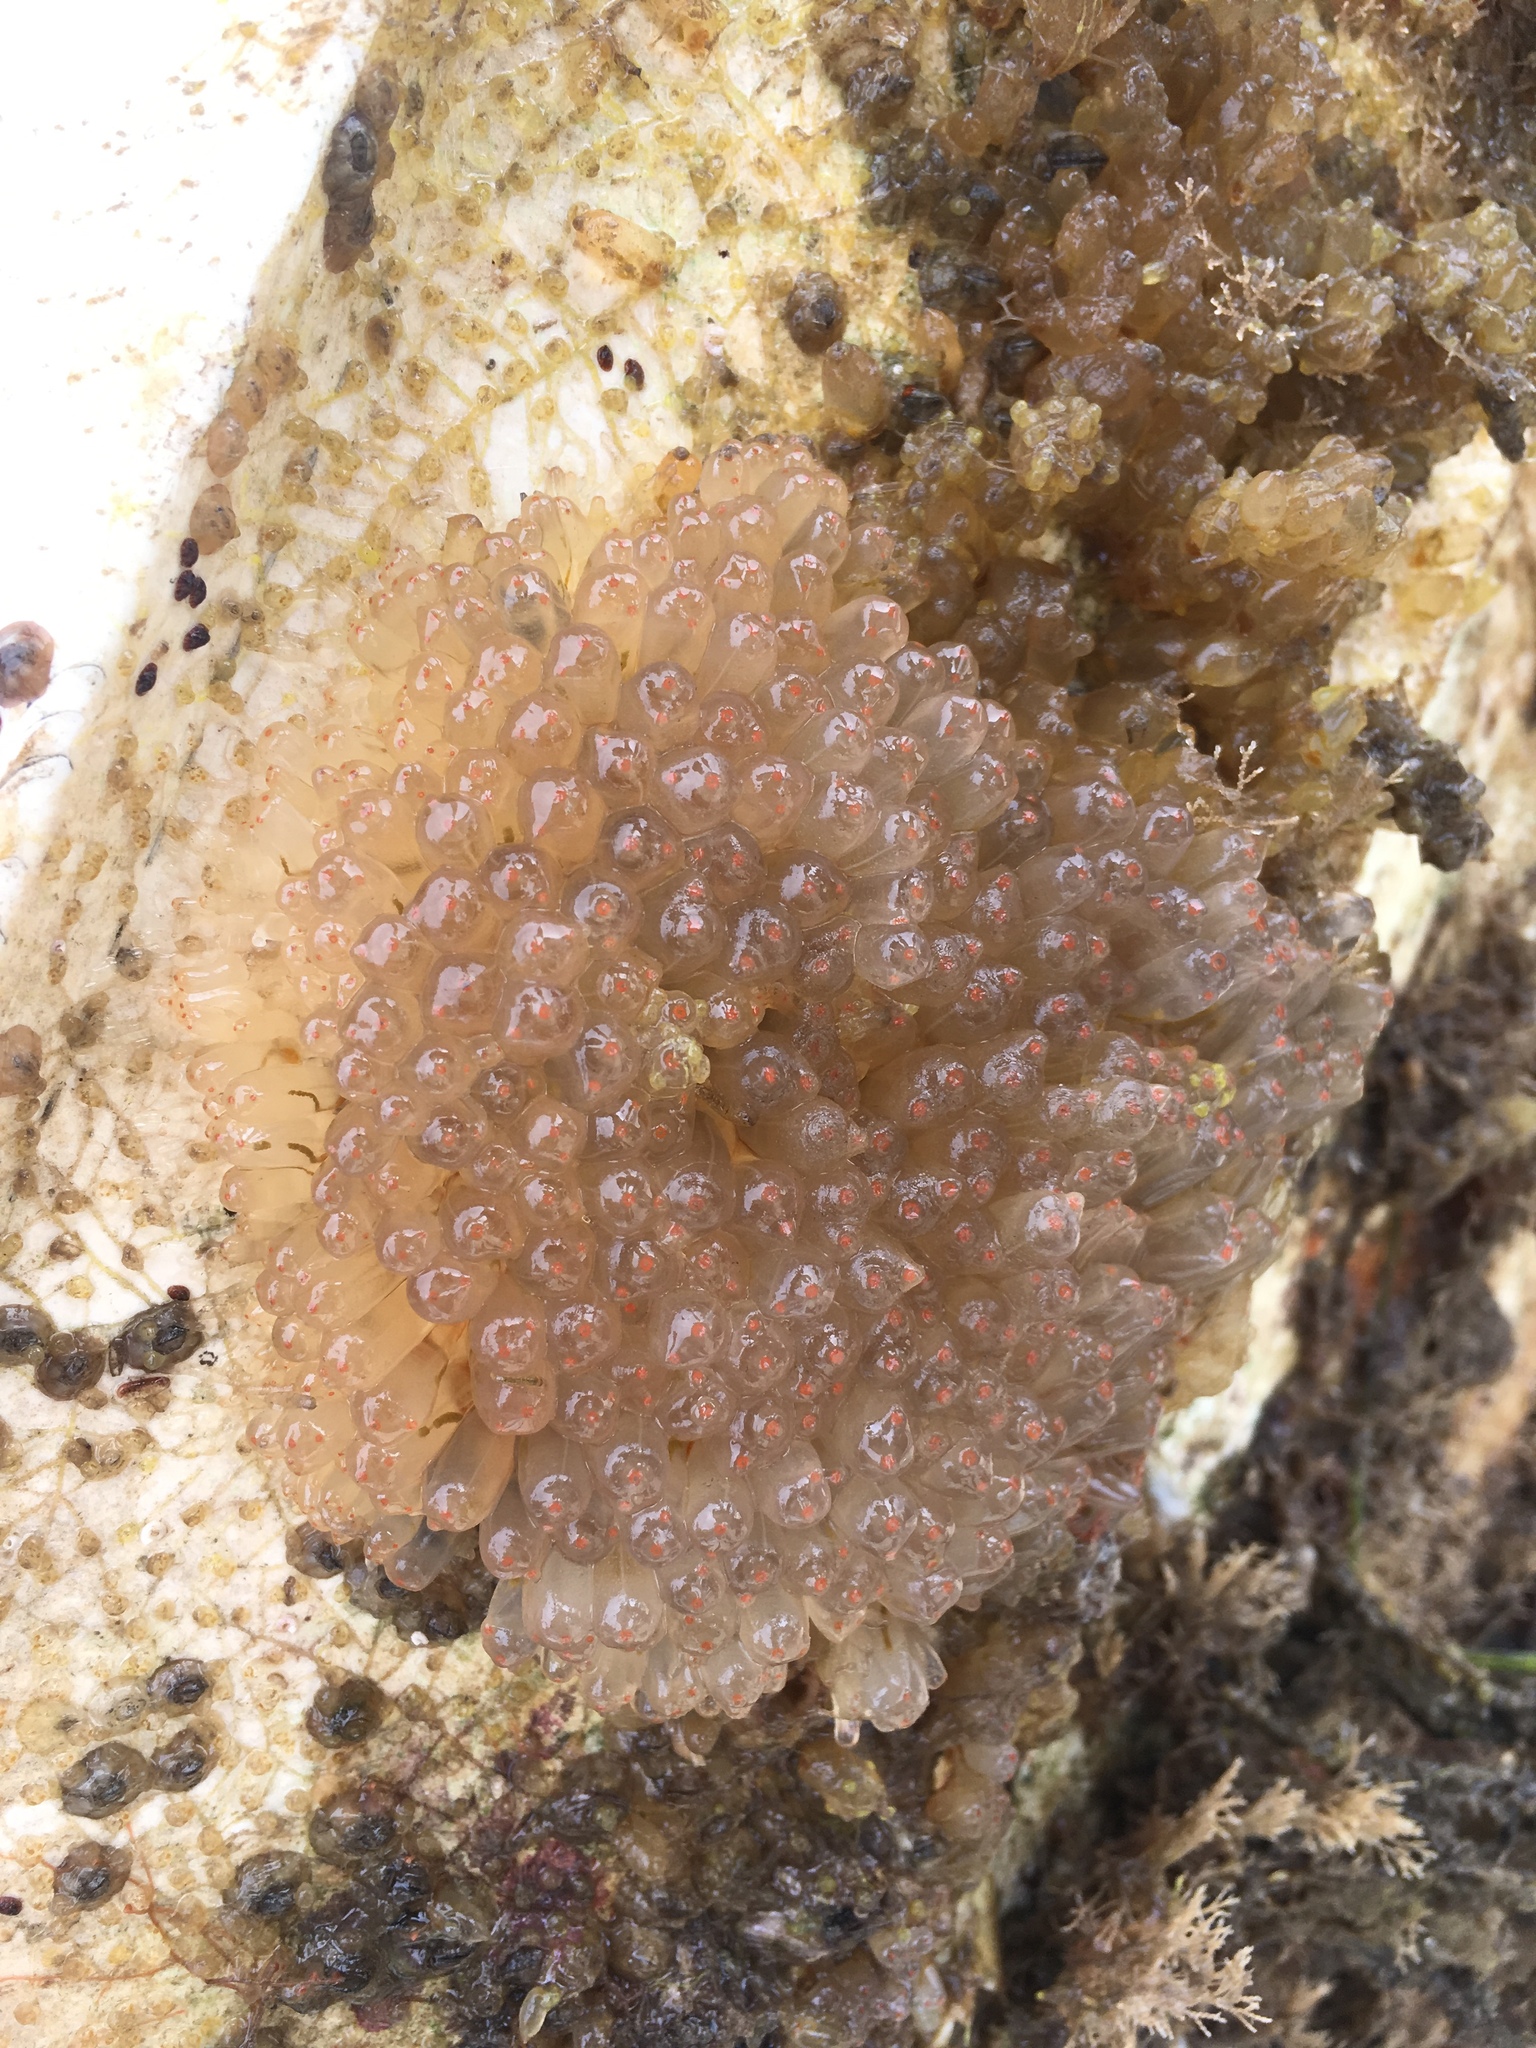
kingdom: Animalia
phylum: Chordata
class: Ascidiacea
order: Phlebobranchia
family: Perophoridae
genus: Ecteinascidia
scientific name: Ecteinascidia turbinata
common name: Mangrove tunicate
